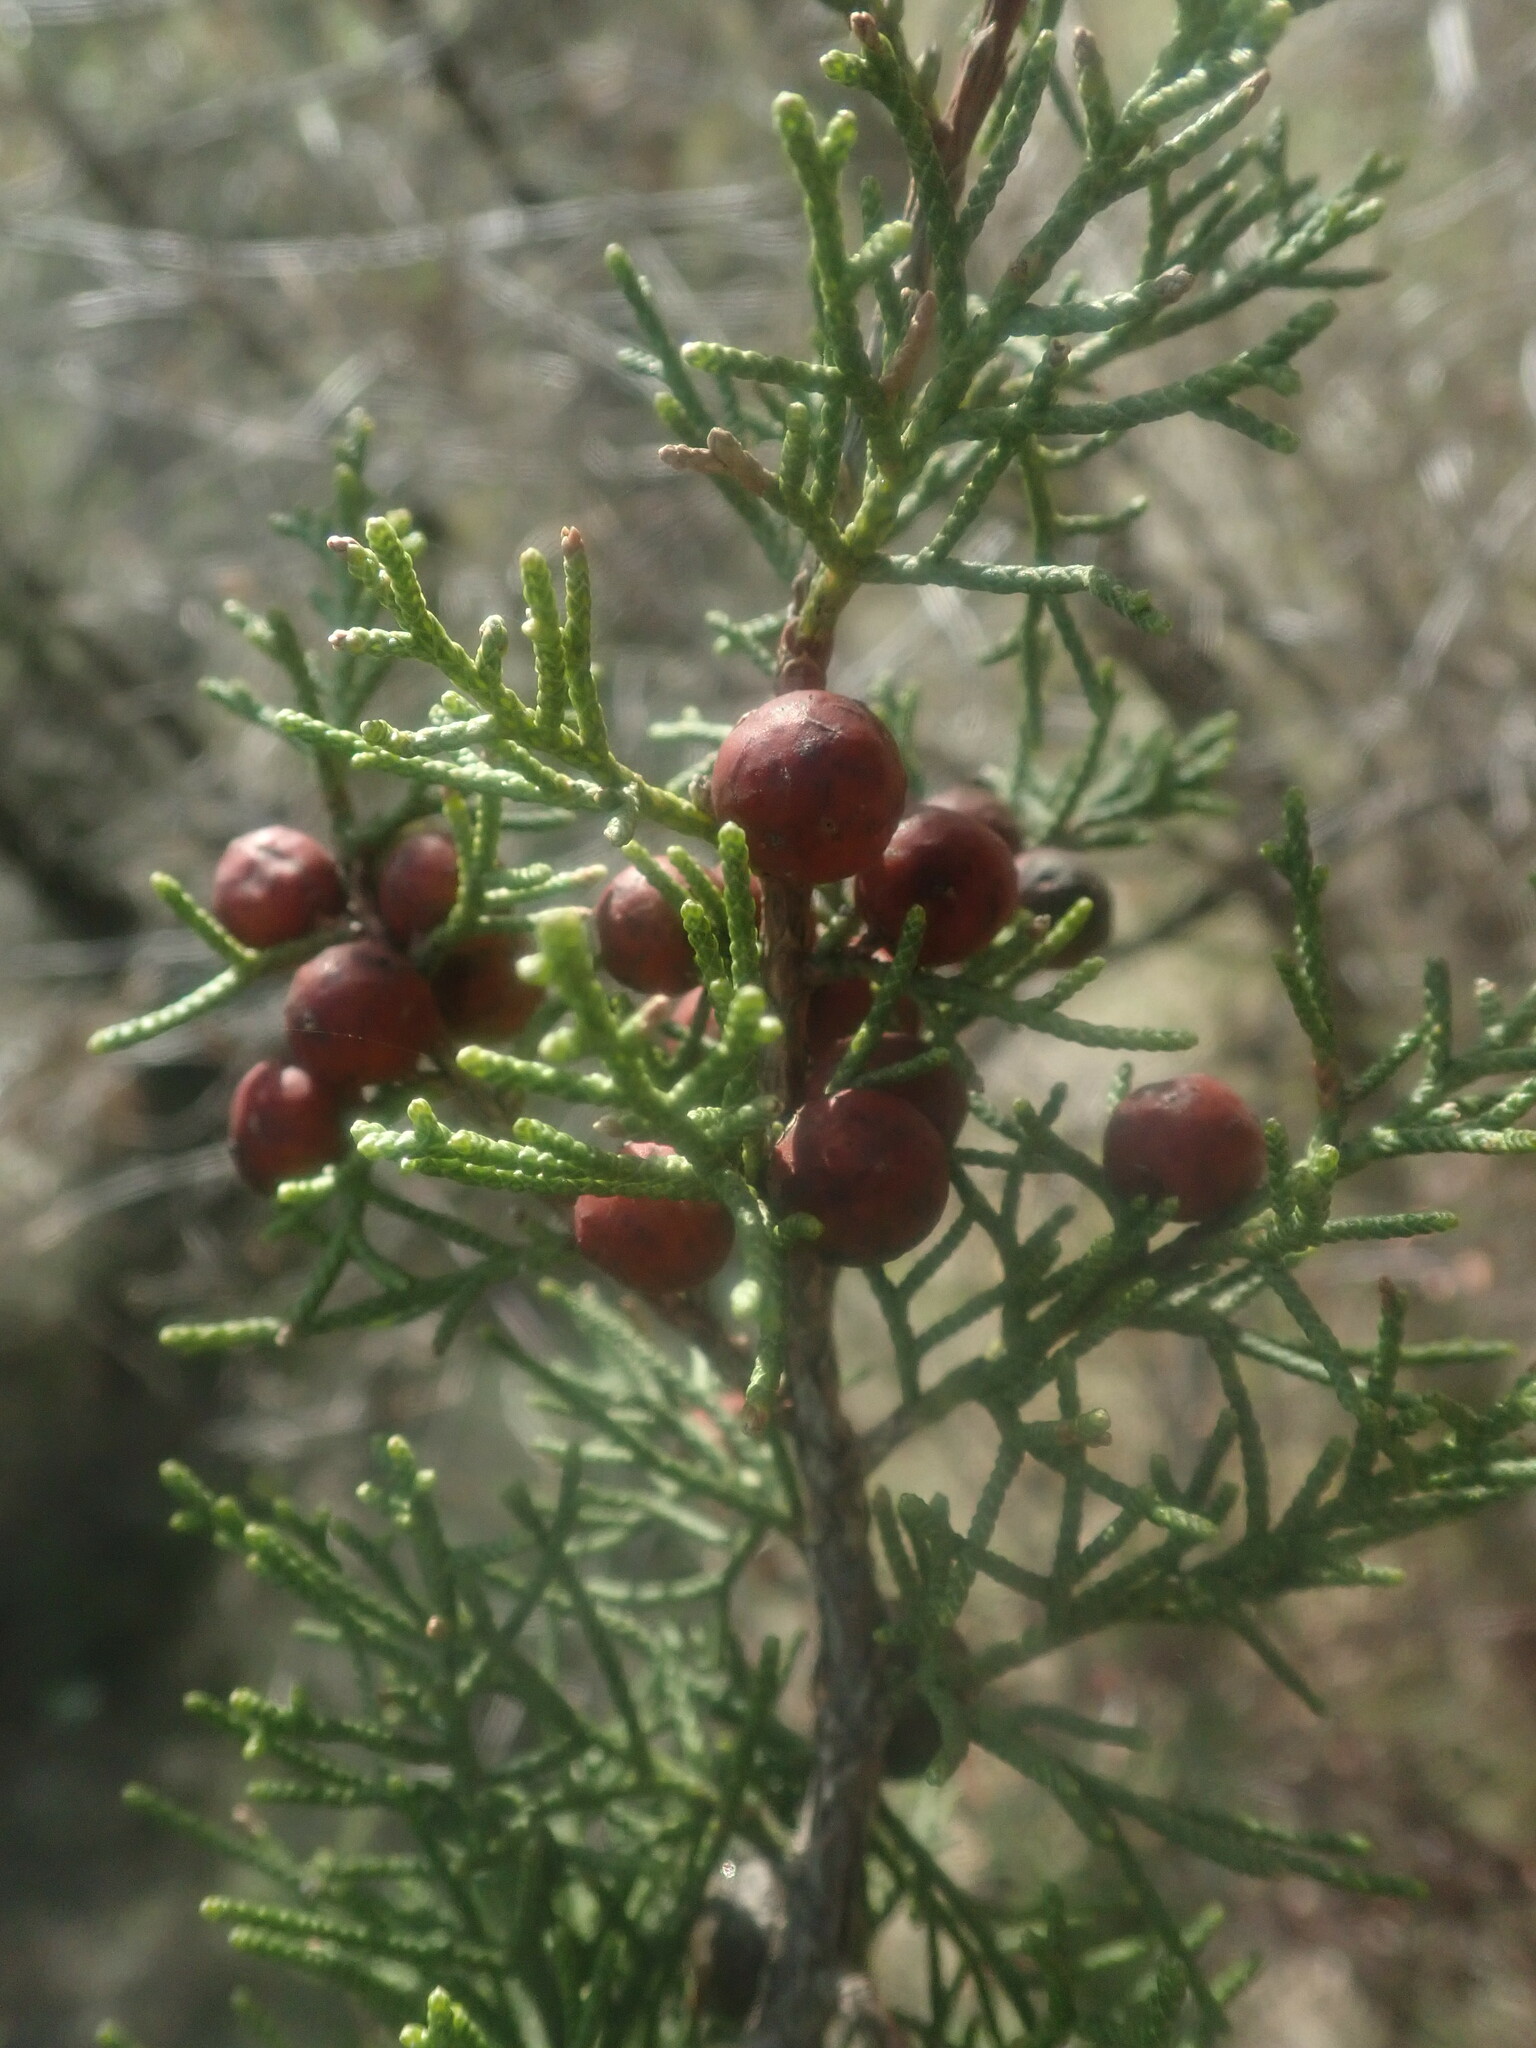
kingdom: Plantae
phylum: Tracheophyta
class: Pinopsida
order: Pinales
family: Cupressaceae
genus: Juniperus
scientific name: Juniperus phoenicea
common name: Phoenician juniper
